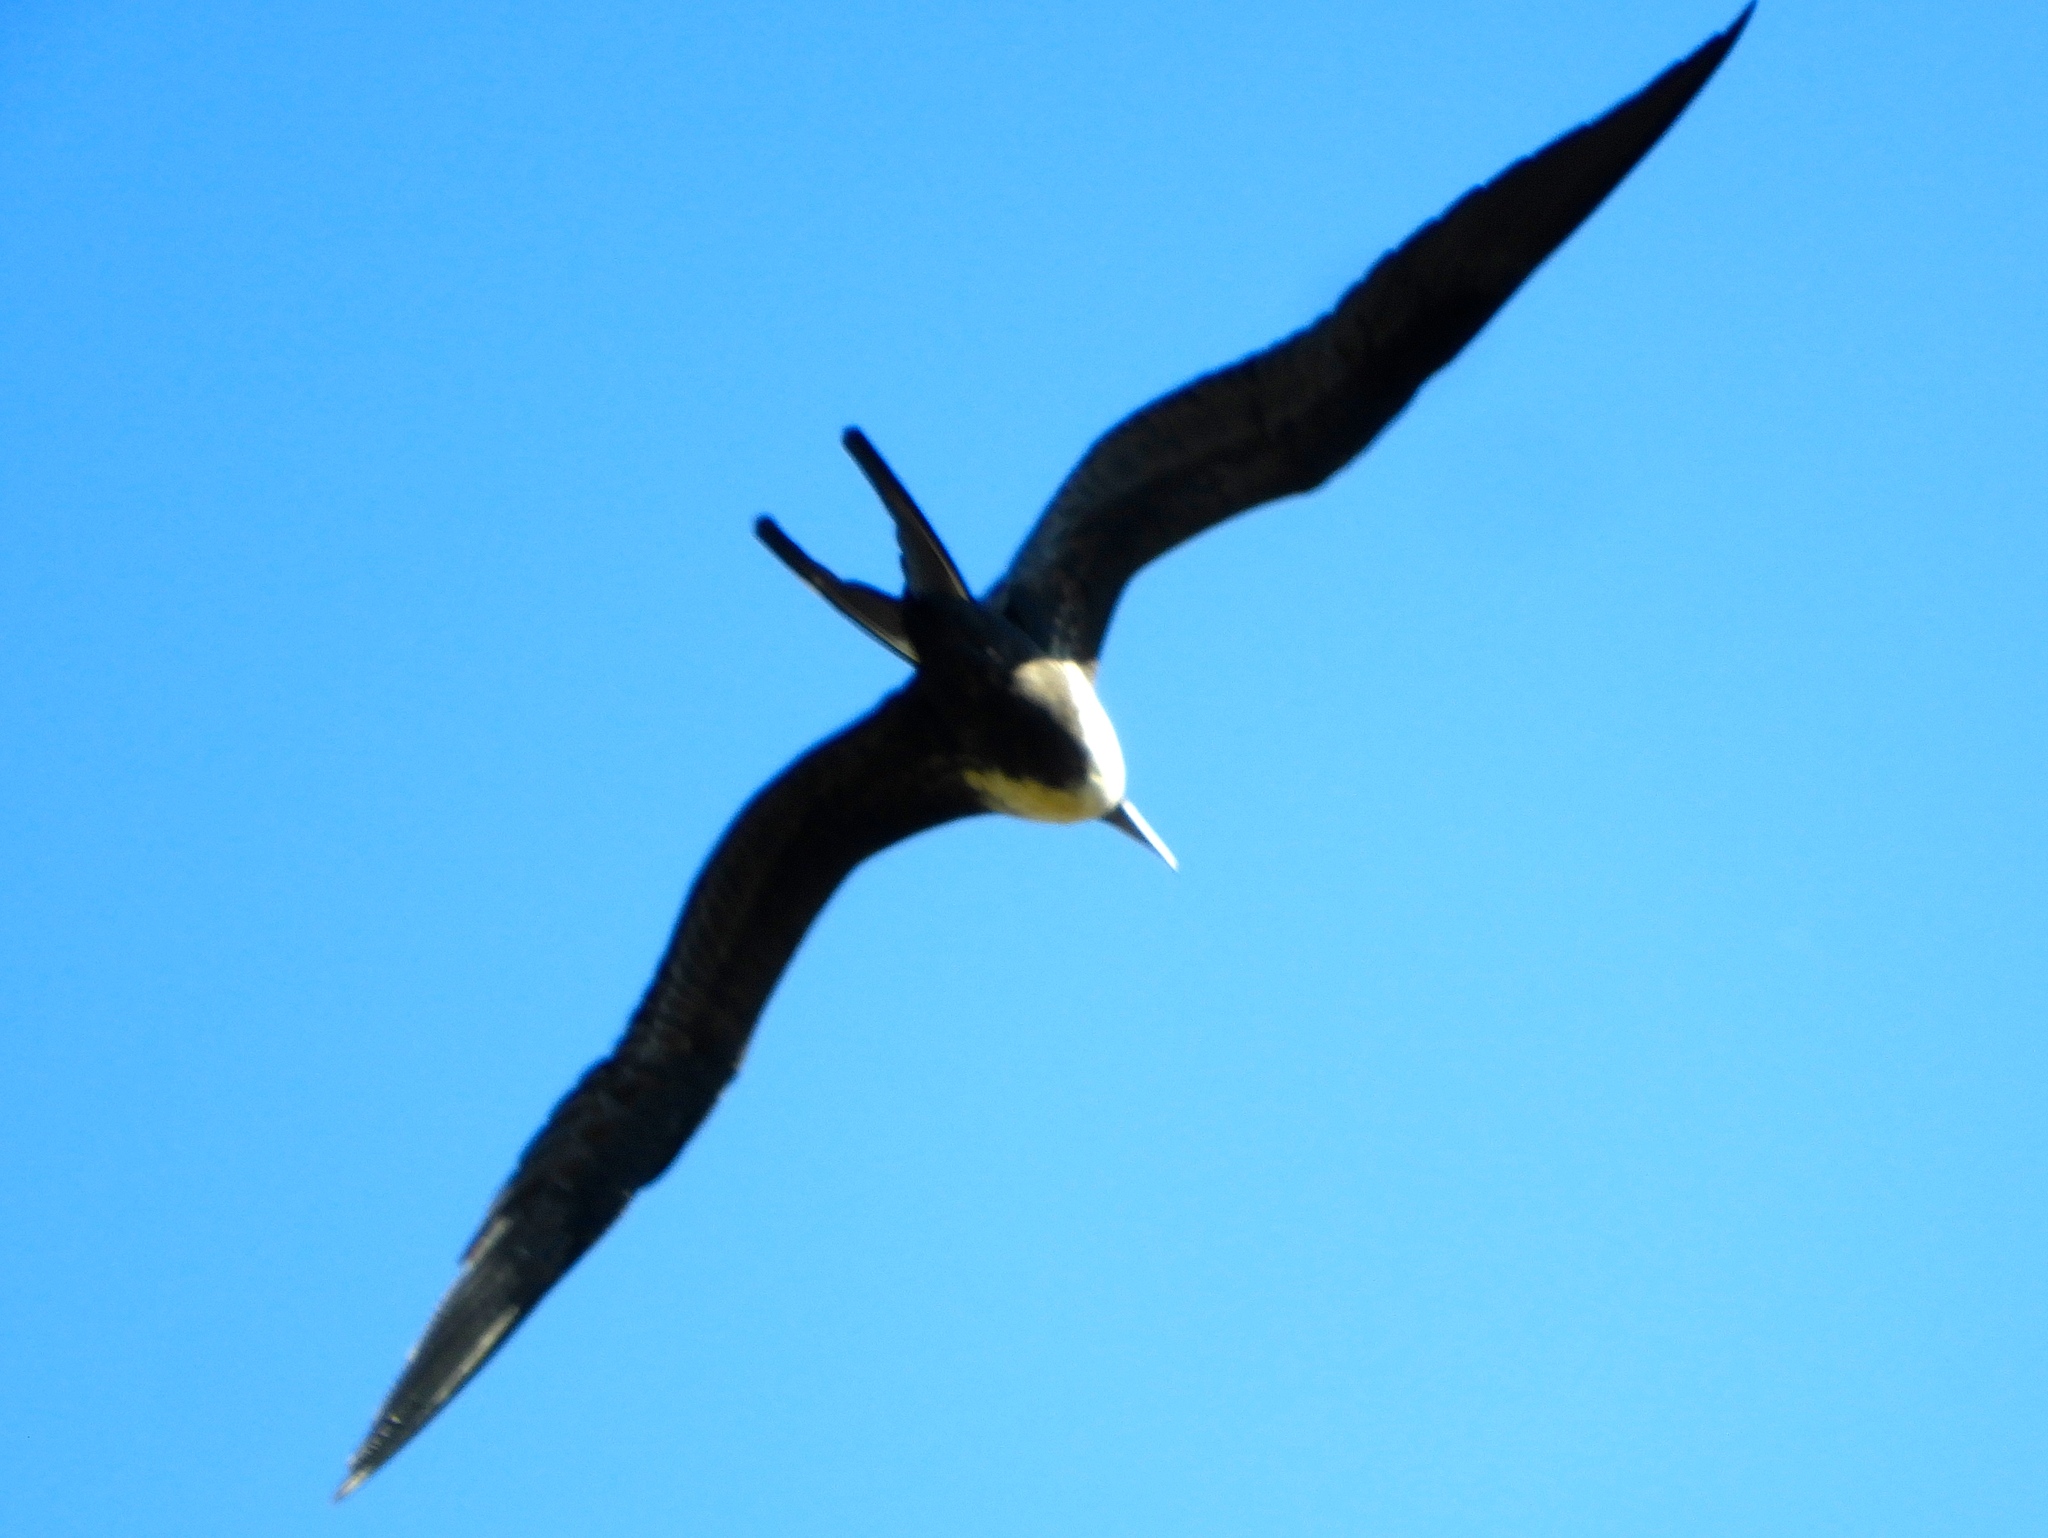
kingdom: Animalia
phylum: Chordata
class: Aves
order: Suliformes
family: Fregatidae
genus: Fregata
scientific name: Fregata magnificens
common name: Magnificent frigatebird
